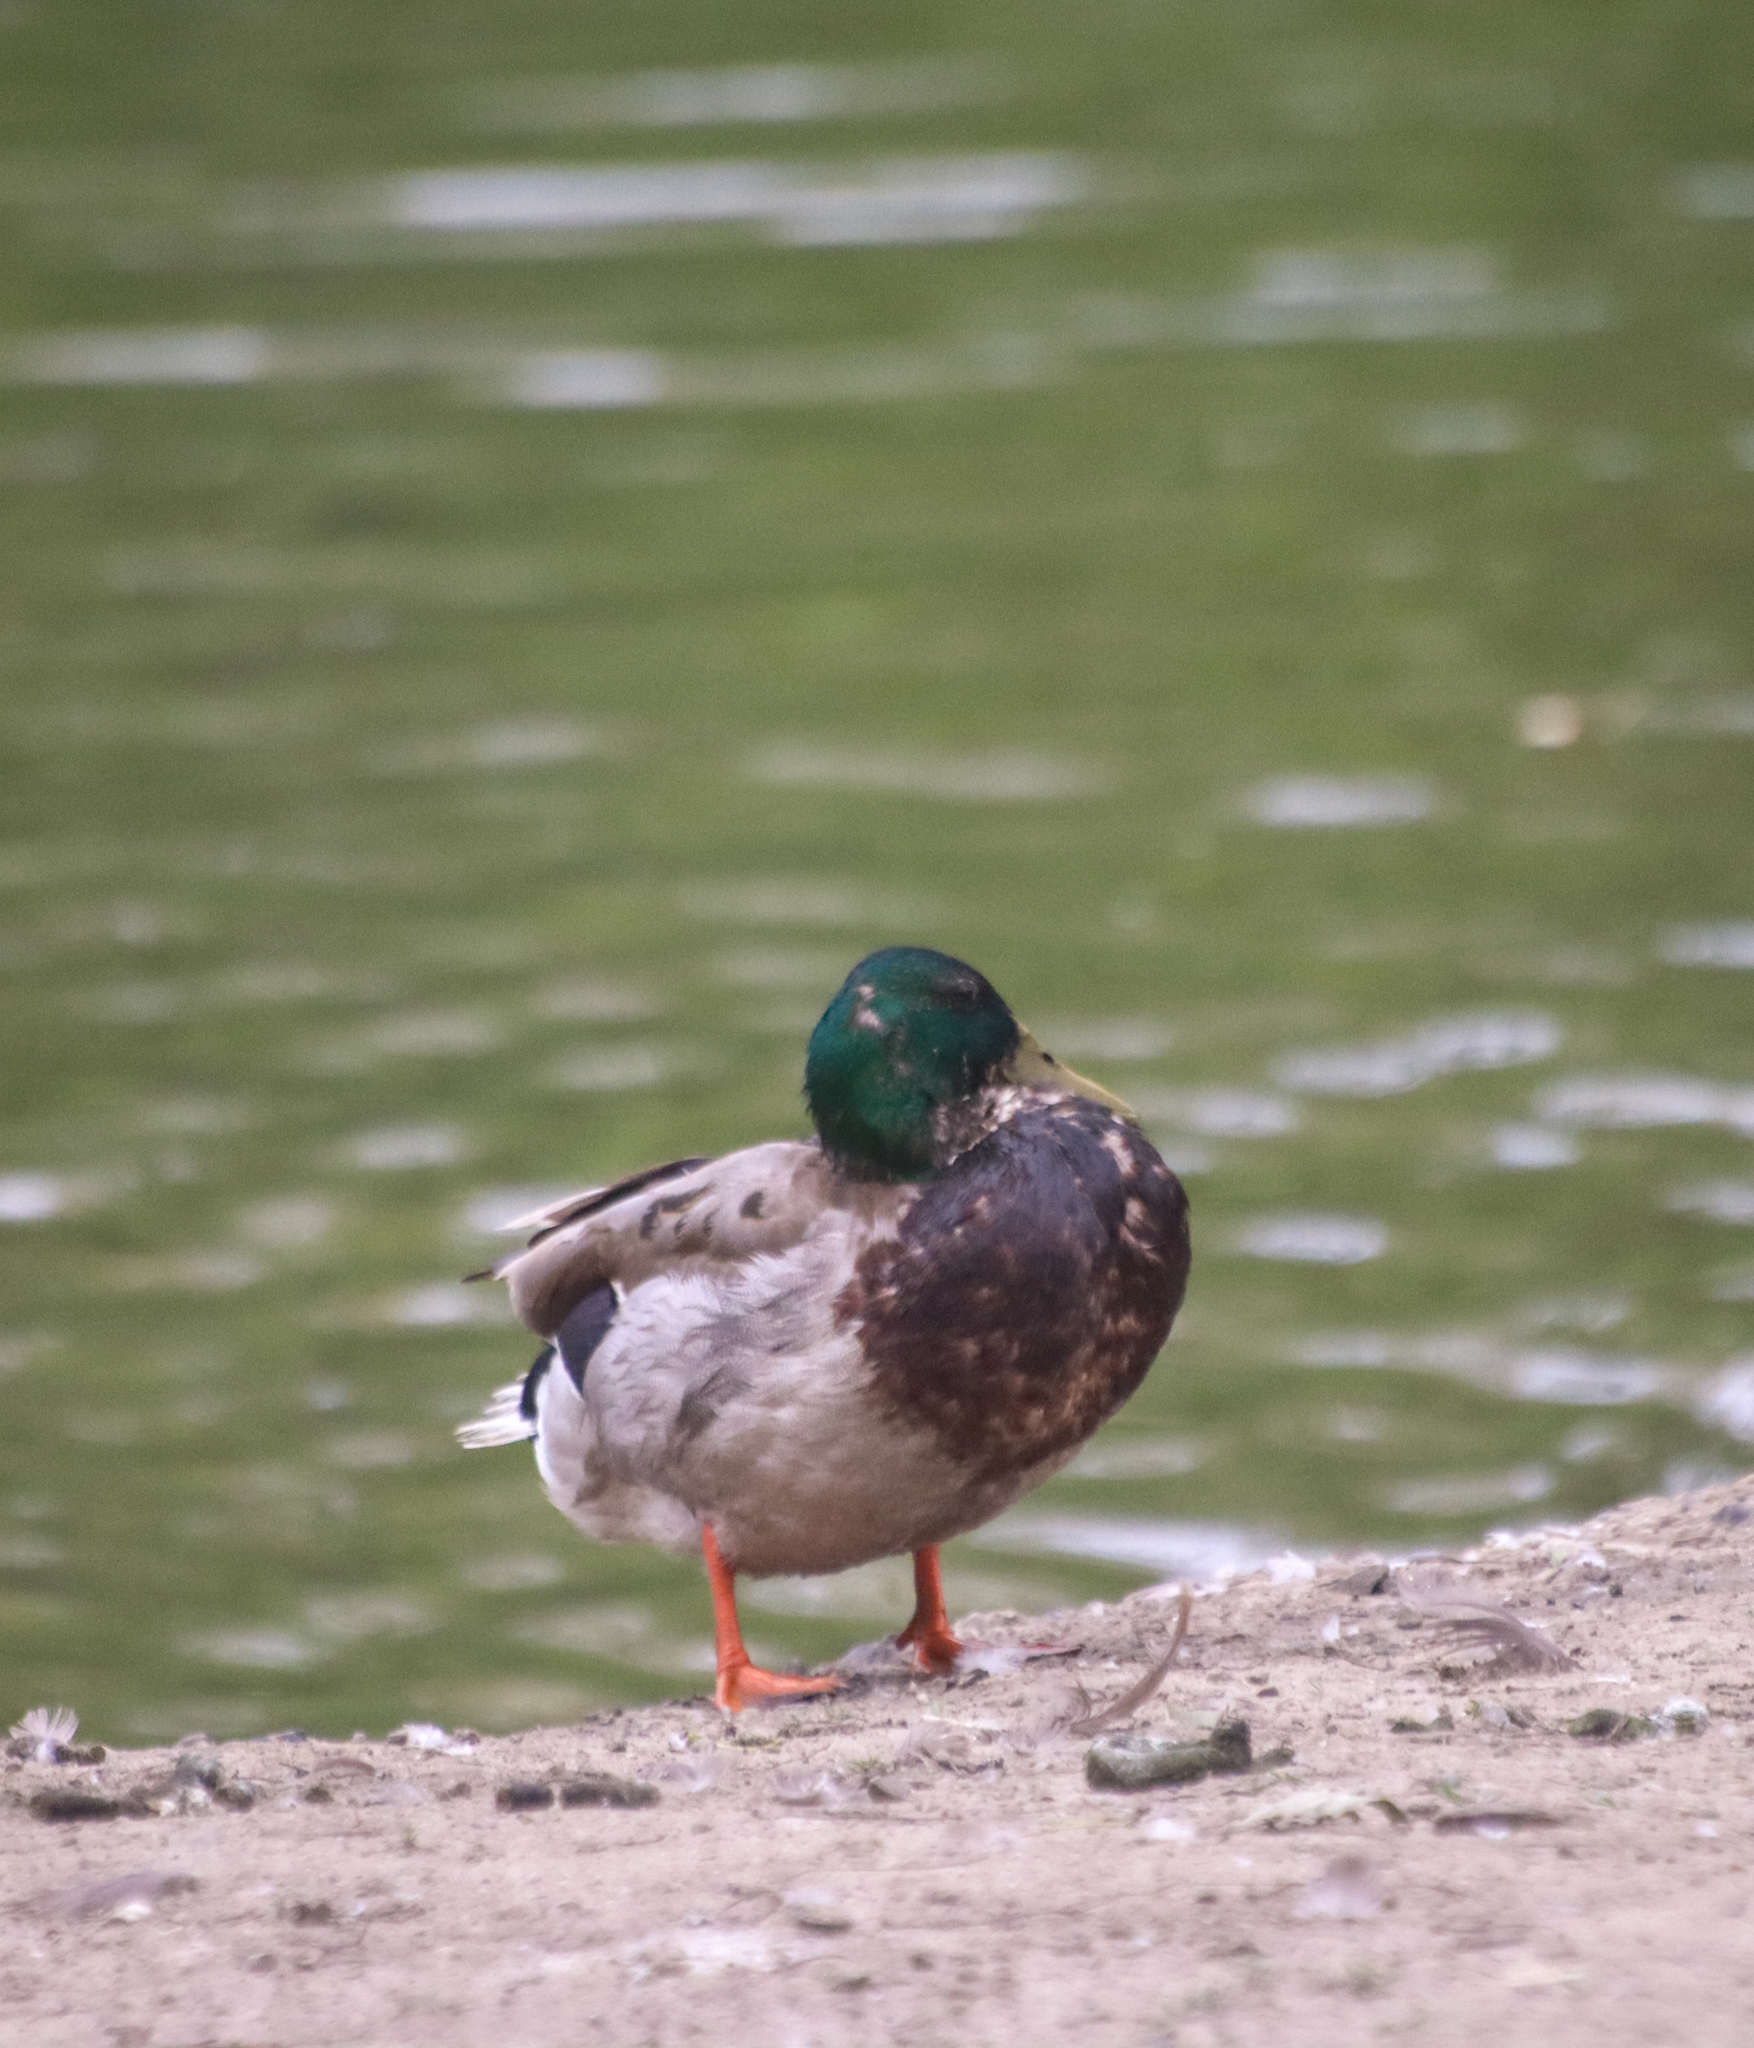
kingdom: Animalia
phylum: Chordata
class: Aves
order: Anseriformes
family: Anatidae
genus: Anas
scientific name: Anas platyrhynchos
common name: Mallard
